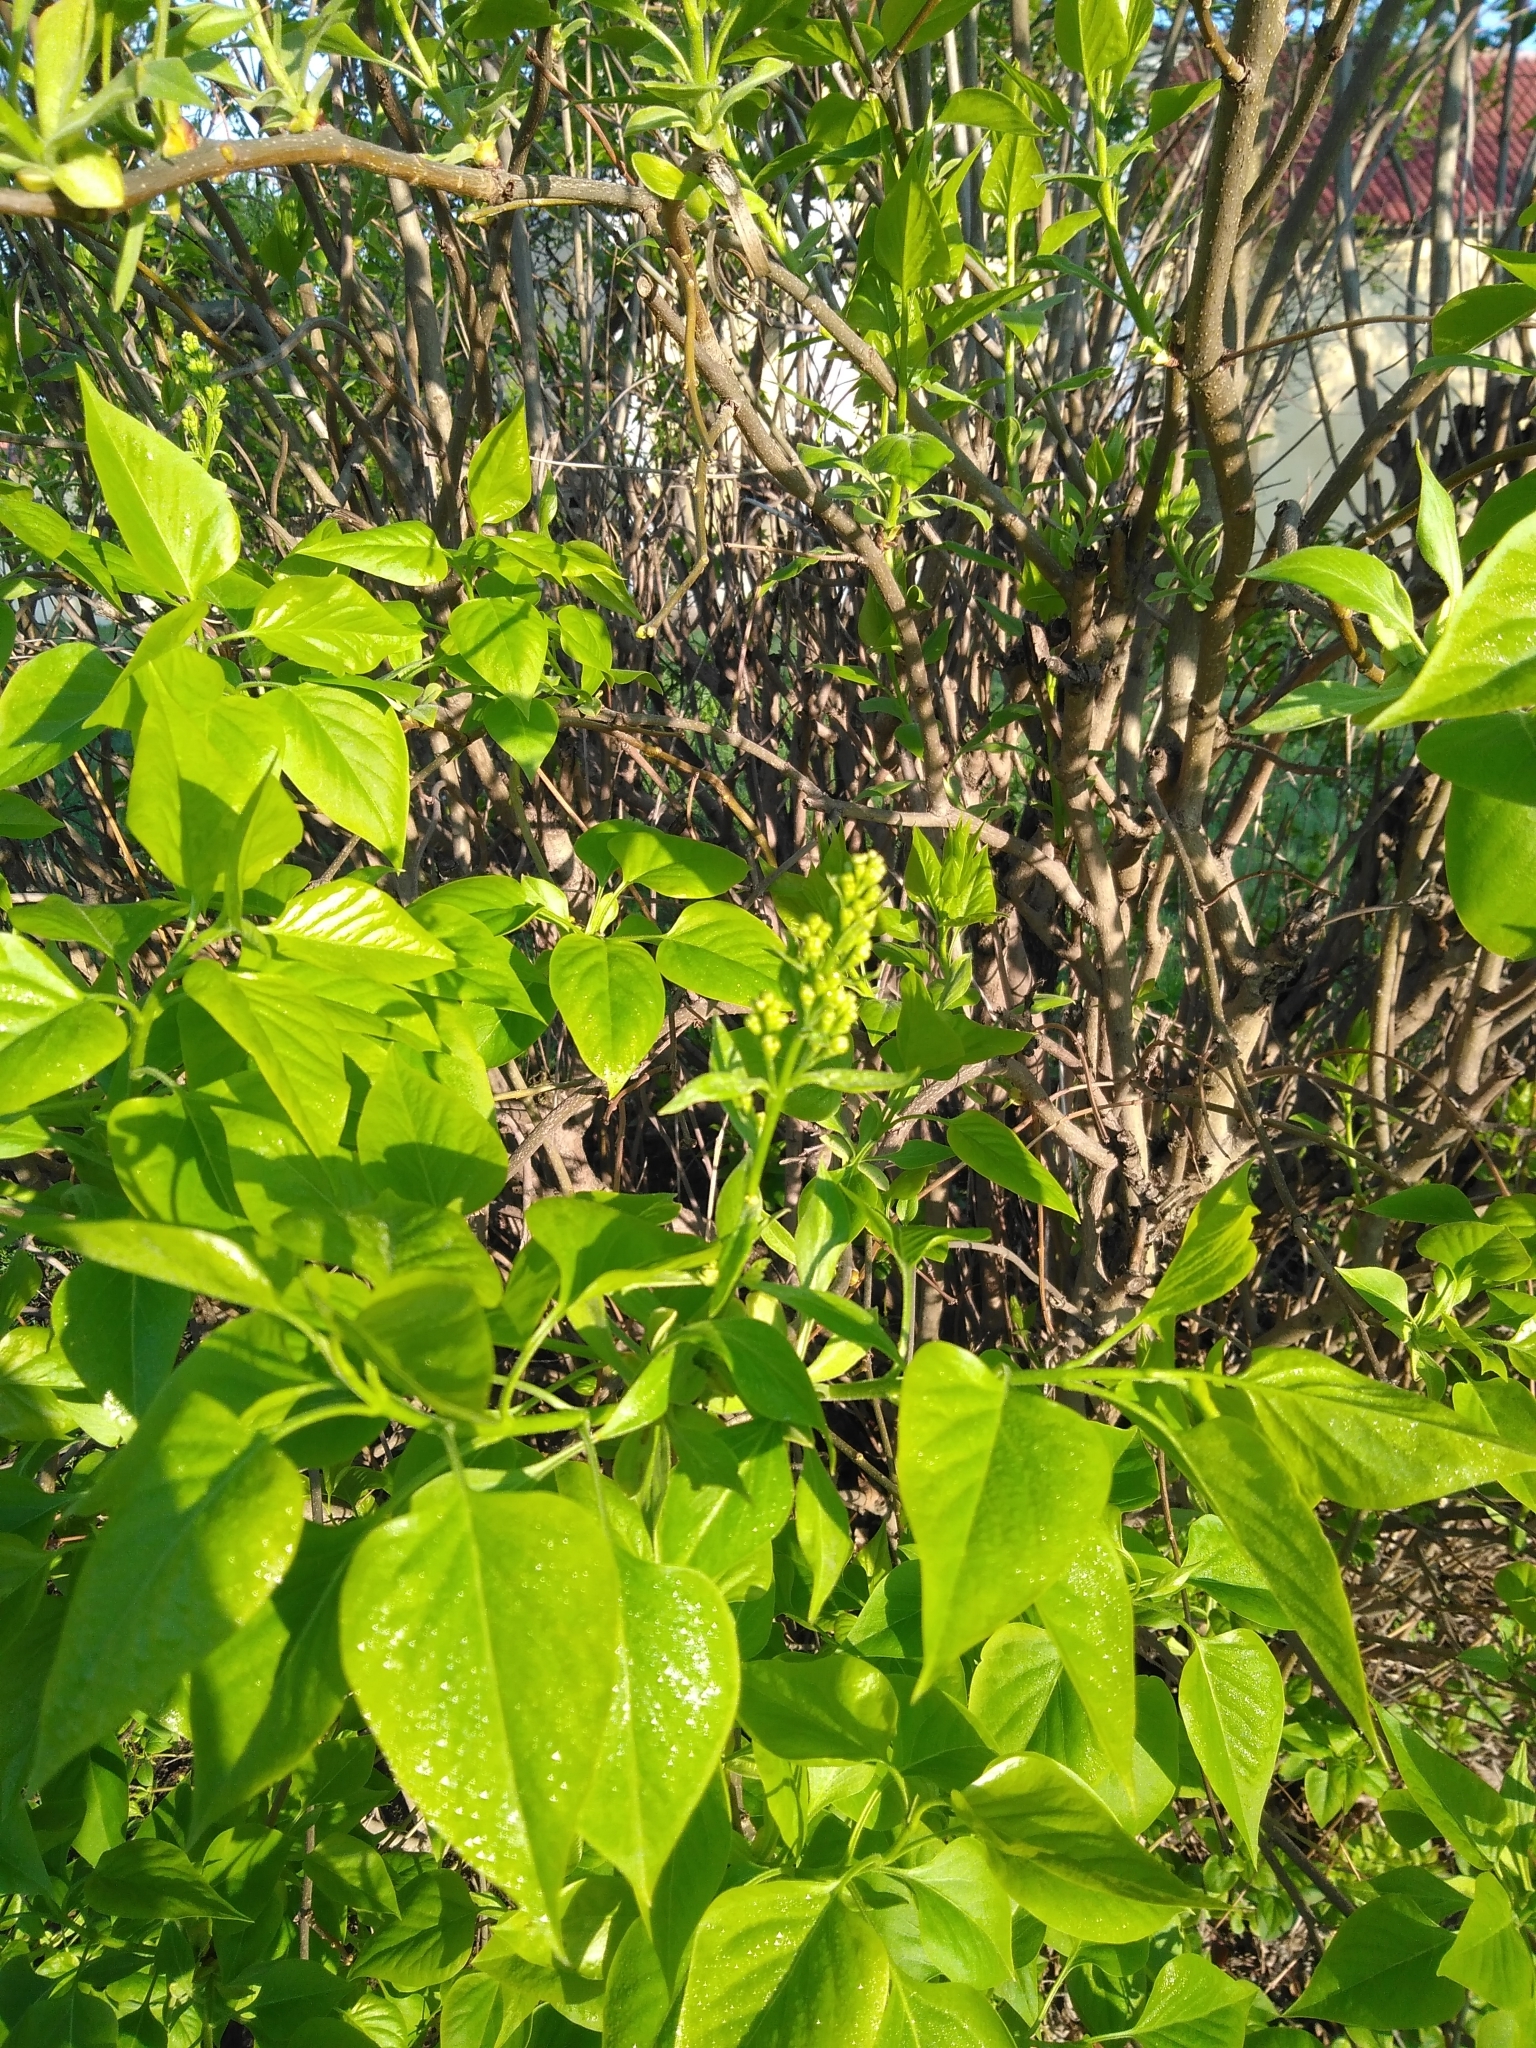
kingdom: Plantae
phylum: Tracheophyta
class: Magnoliopsida
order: Lamiales
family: Oleaceae
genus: Syringa
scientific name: Syringa vulgaris
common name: Common lilac
